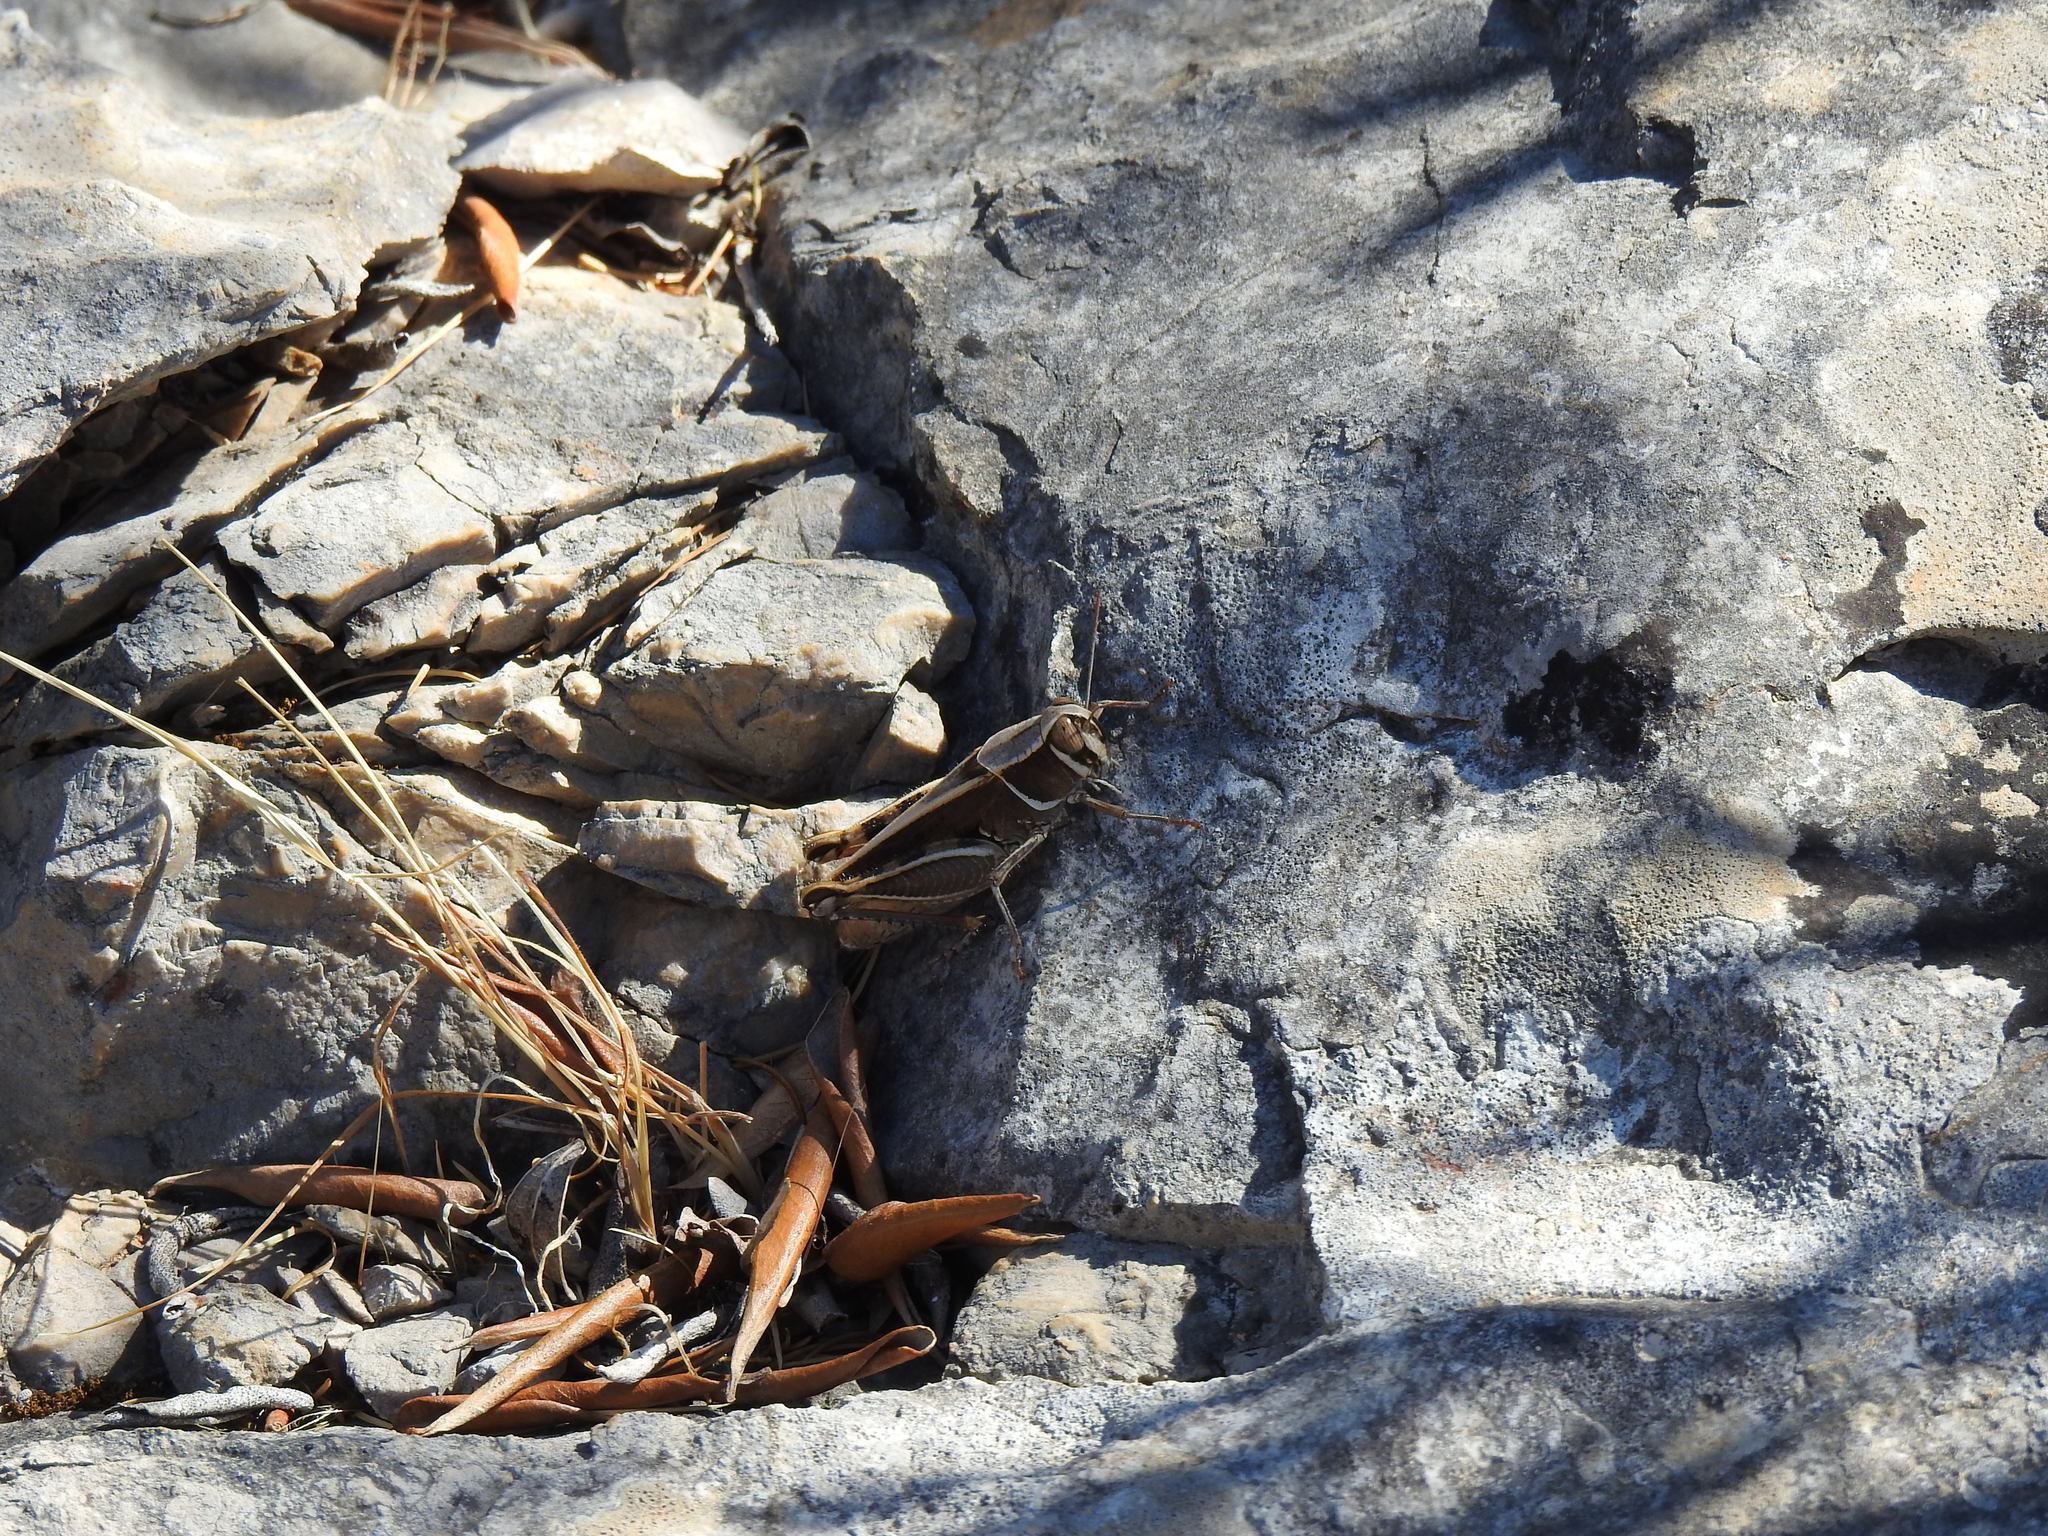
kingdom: Animalia
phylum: Arthropoda
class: Insecta
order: Orthoptera
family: Acrididae
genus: Calliptamus
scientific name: Calliptamus barbarus
